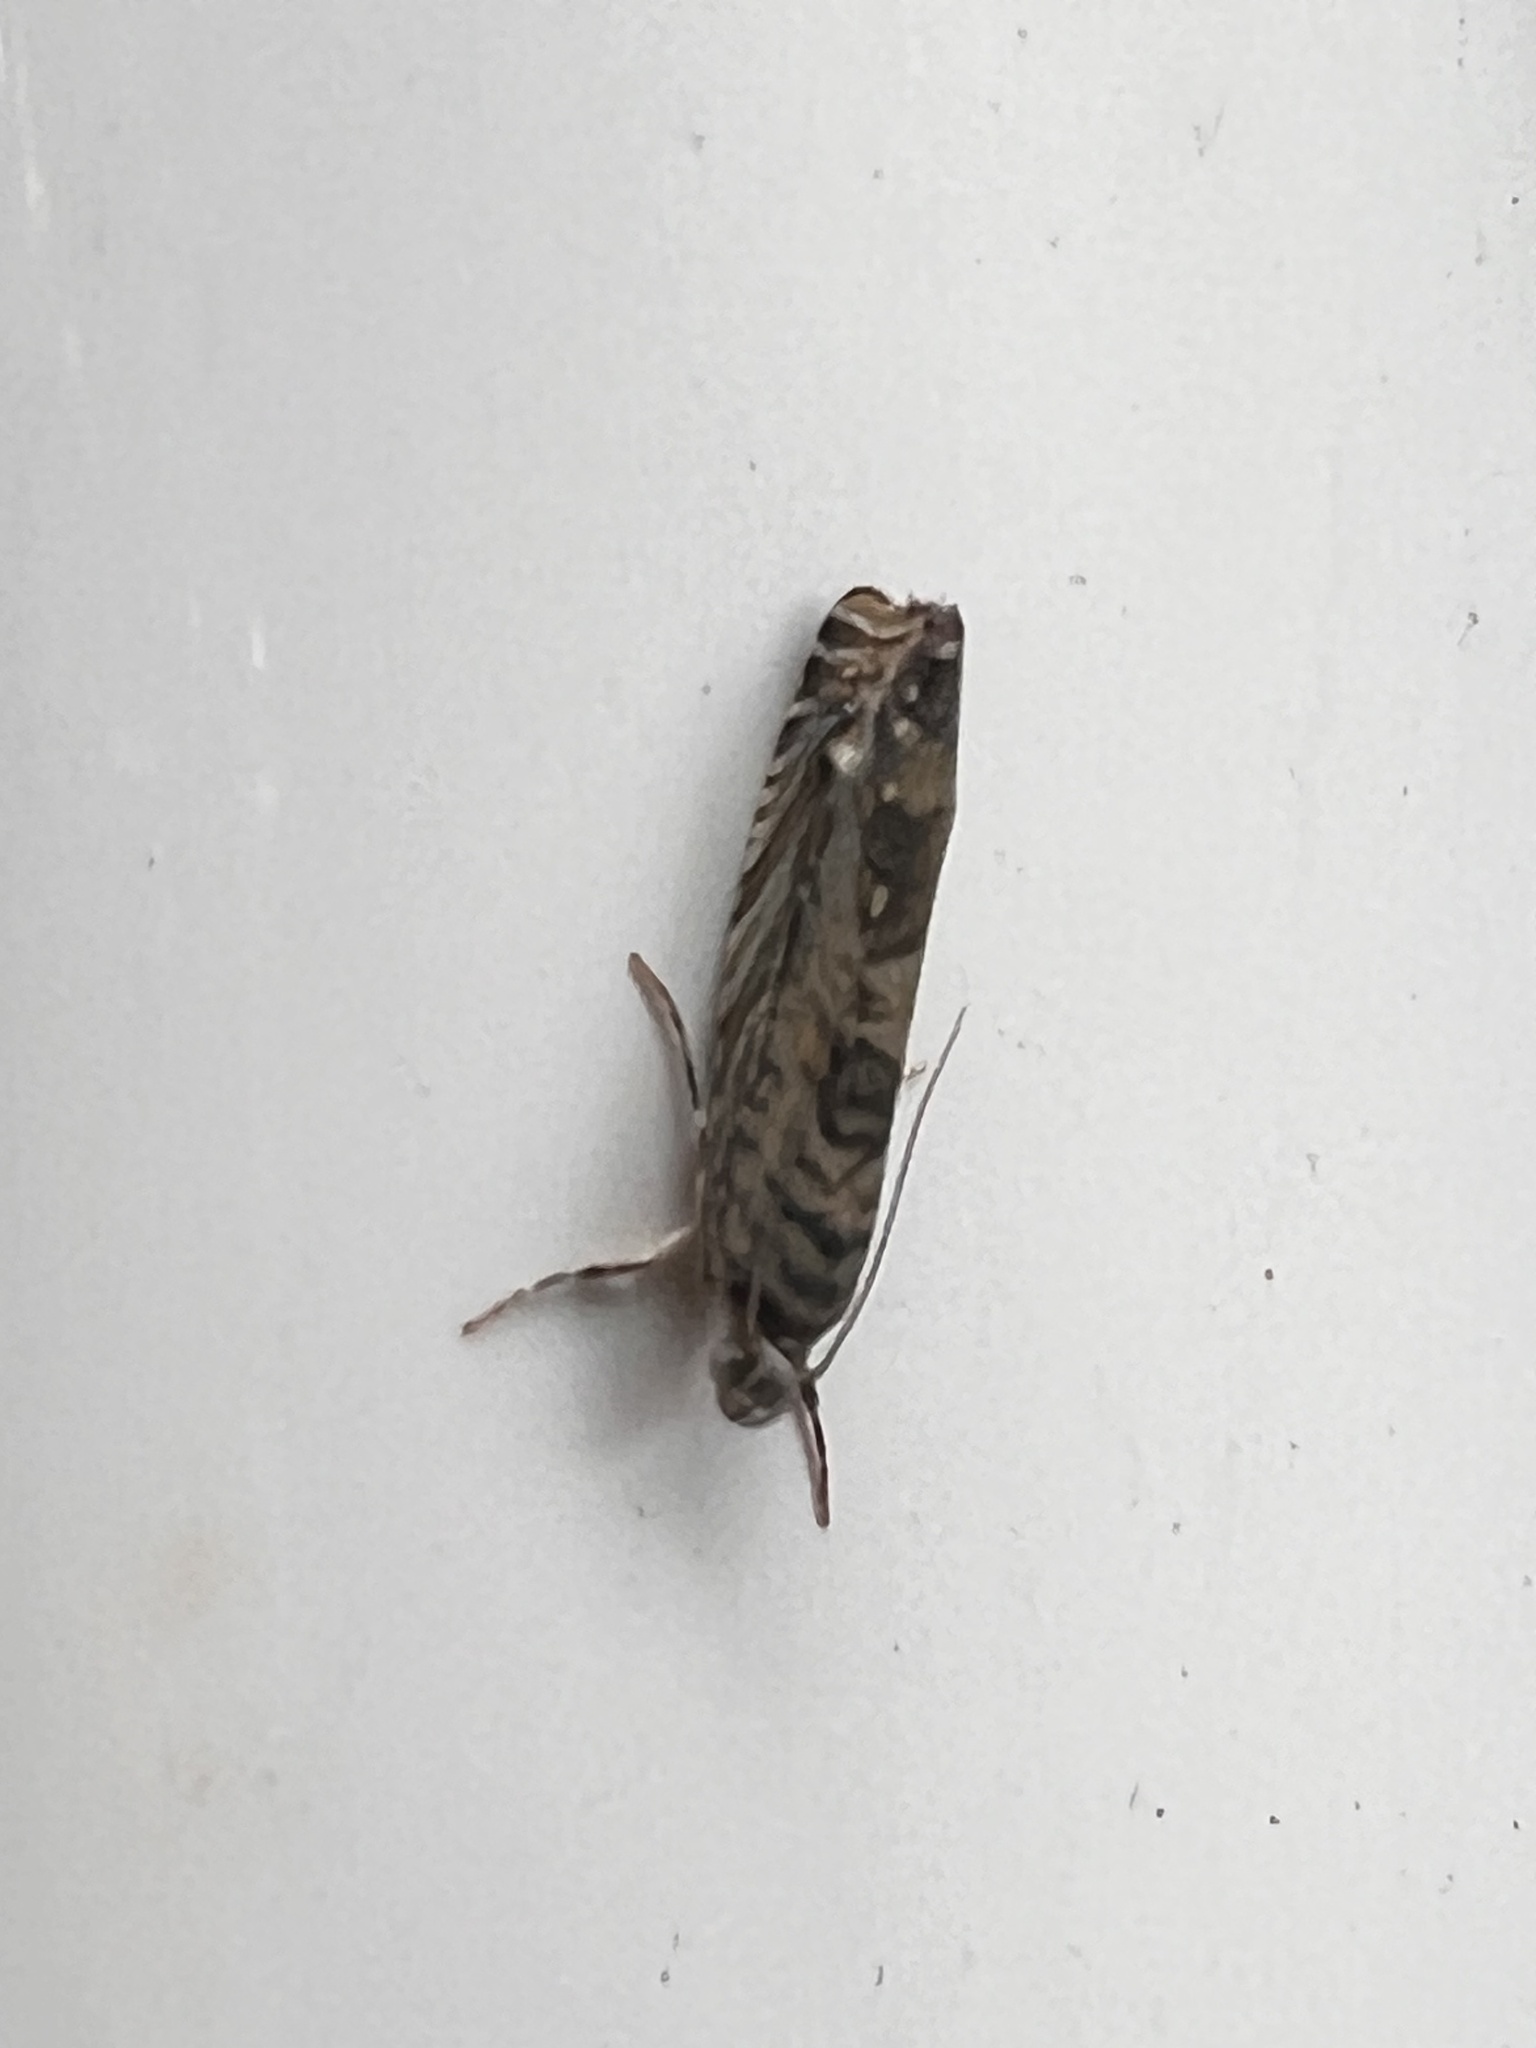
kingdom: Animalia
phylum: Arthropoda
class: Insecta
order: Lepidoptera
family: Plutellidae
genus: Doxophyrtis
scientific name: Doxophyrtis hydrocosma
